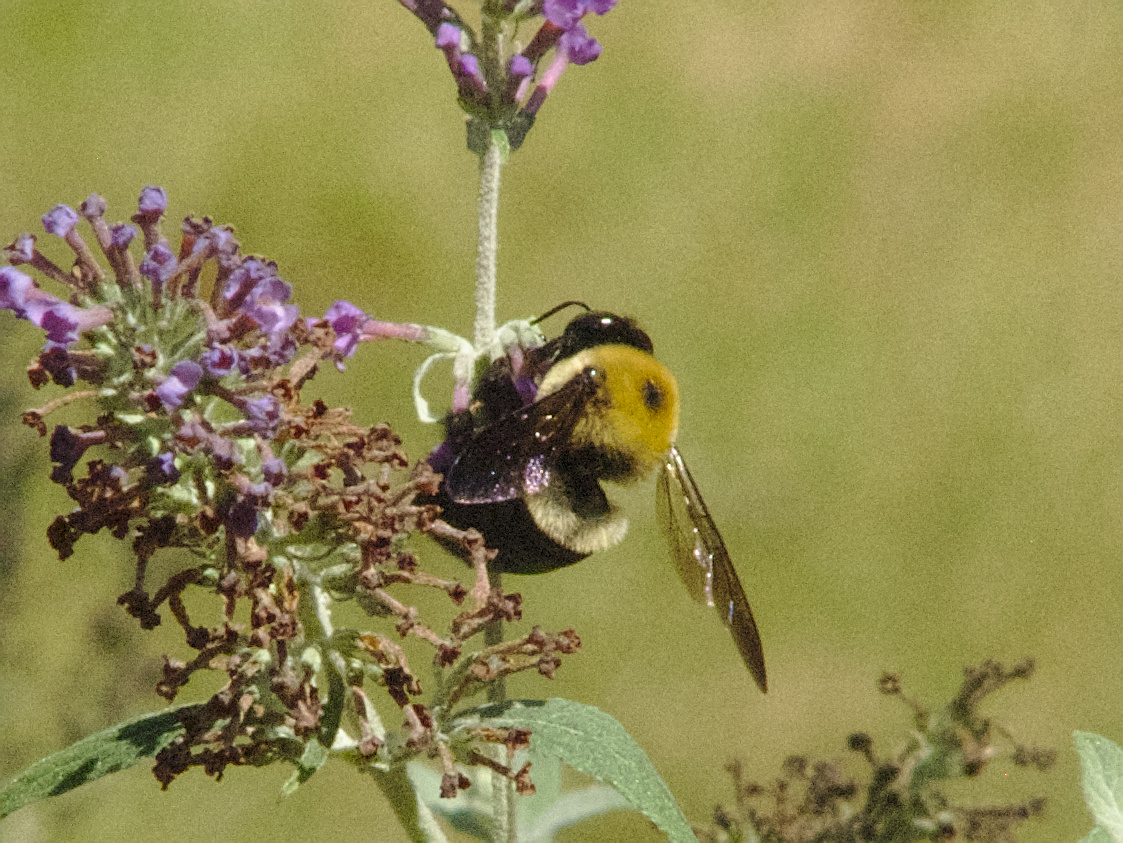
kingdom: Animalia
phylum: Arthropoda
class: Insecta
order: Hymenoptera
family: Apidae
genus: Xylocopa
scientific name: Xylocopa virginica
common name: Carpenter bee
